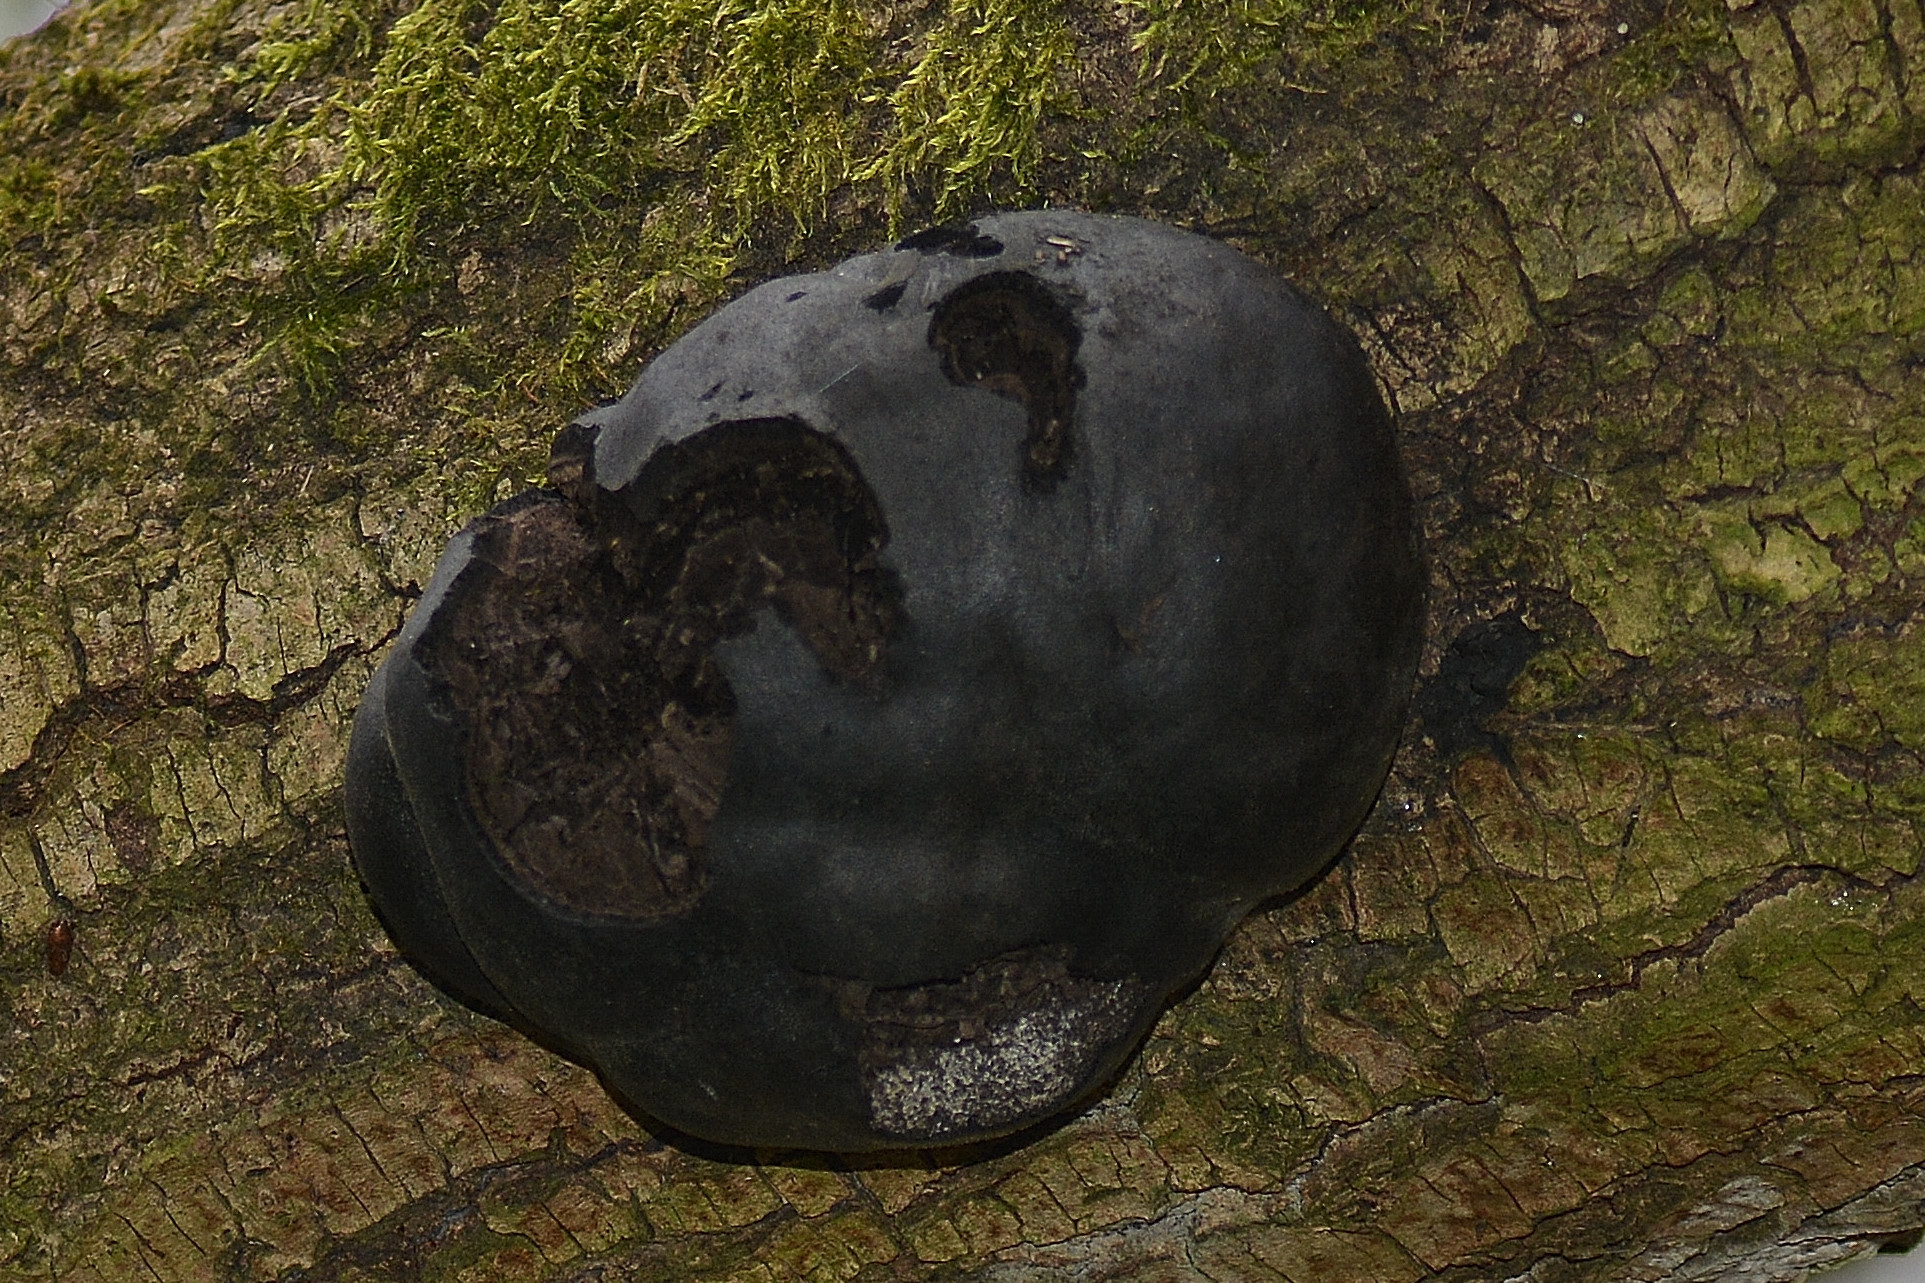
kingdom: Fungi
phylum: Ascomycota
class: Sordariomycetes
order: Xylariales
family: Hypoxylaceae
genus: Daldinia
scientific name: Daldinia concentrica
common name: Cramp balls
